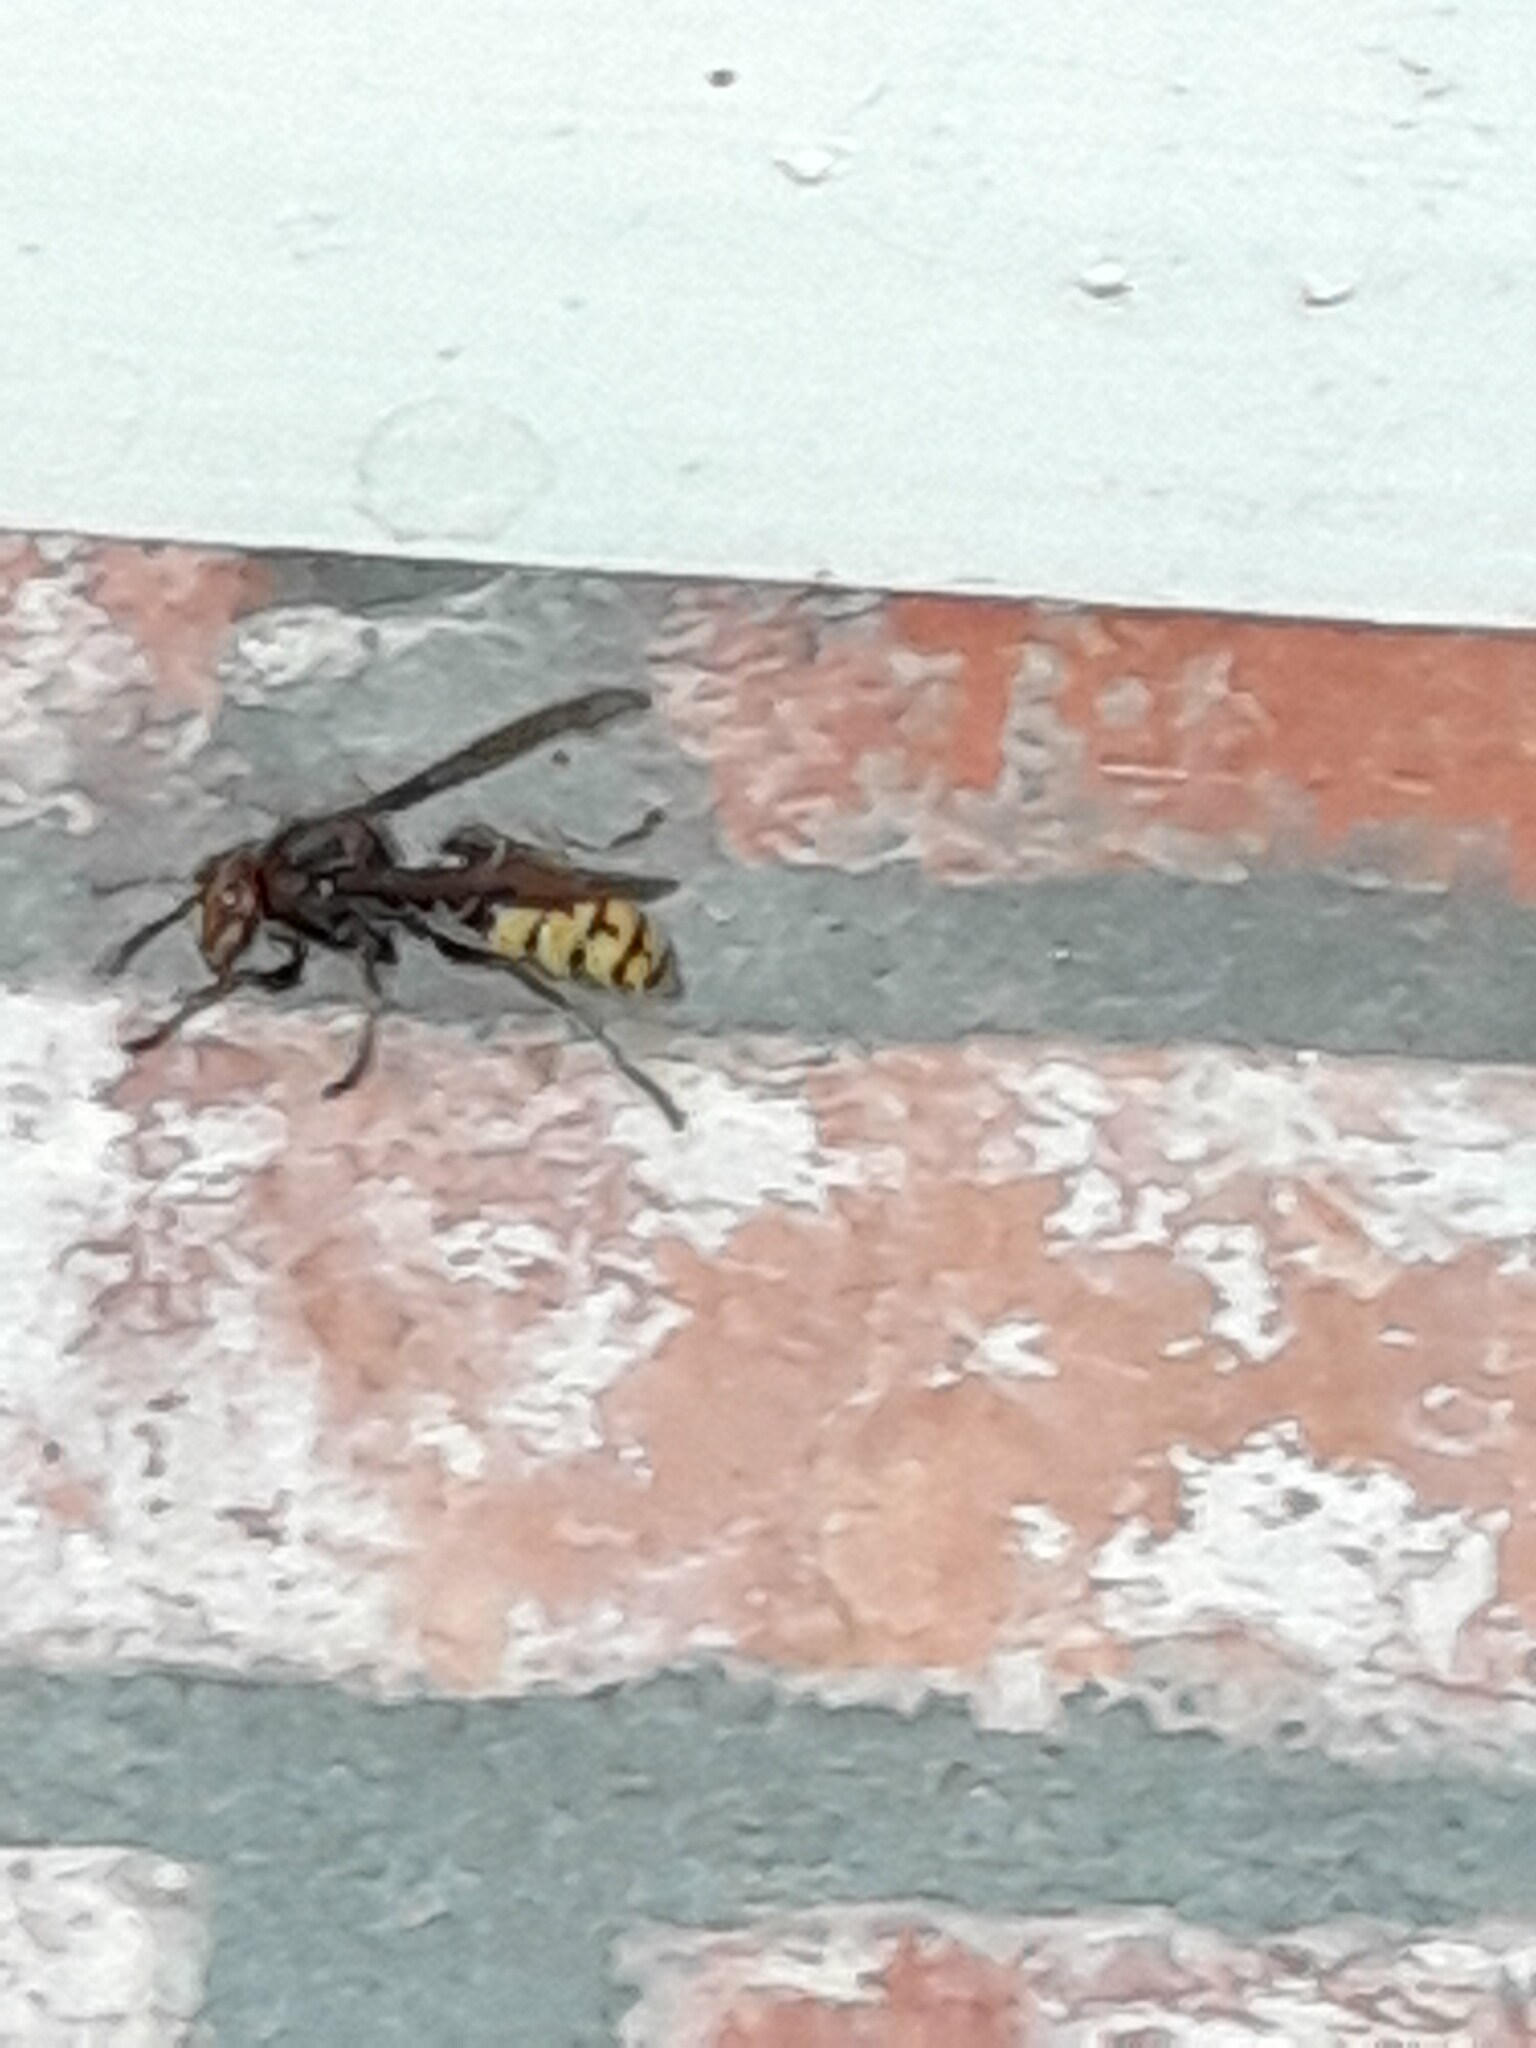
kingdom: Animalia
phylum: Arthropoda
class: Insecta
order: Hymenoptera
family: Vespidae
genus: Vespa
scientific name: Vespa crabro
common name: Hornet
